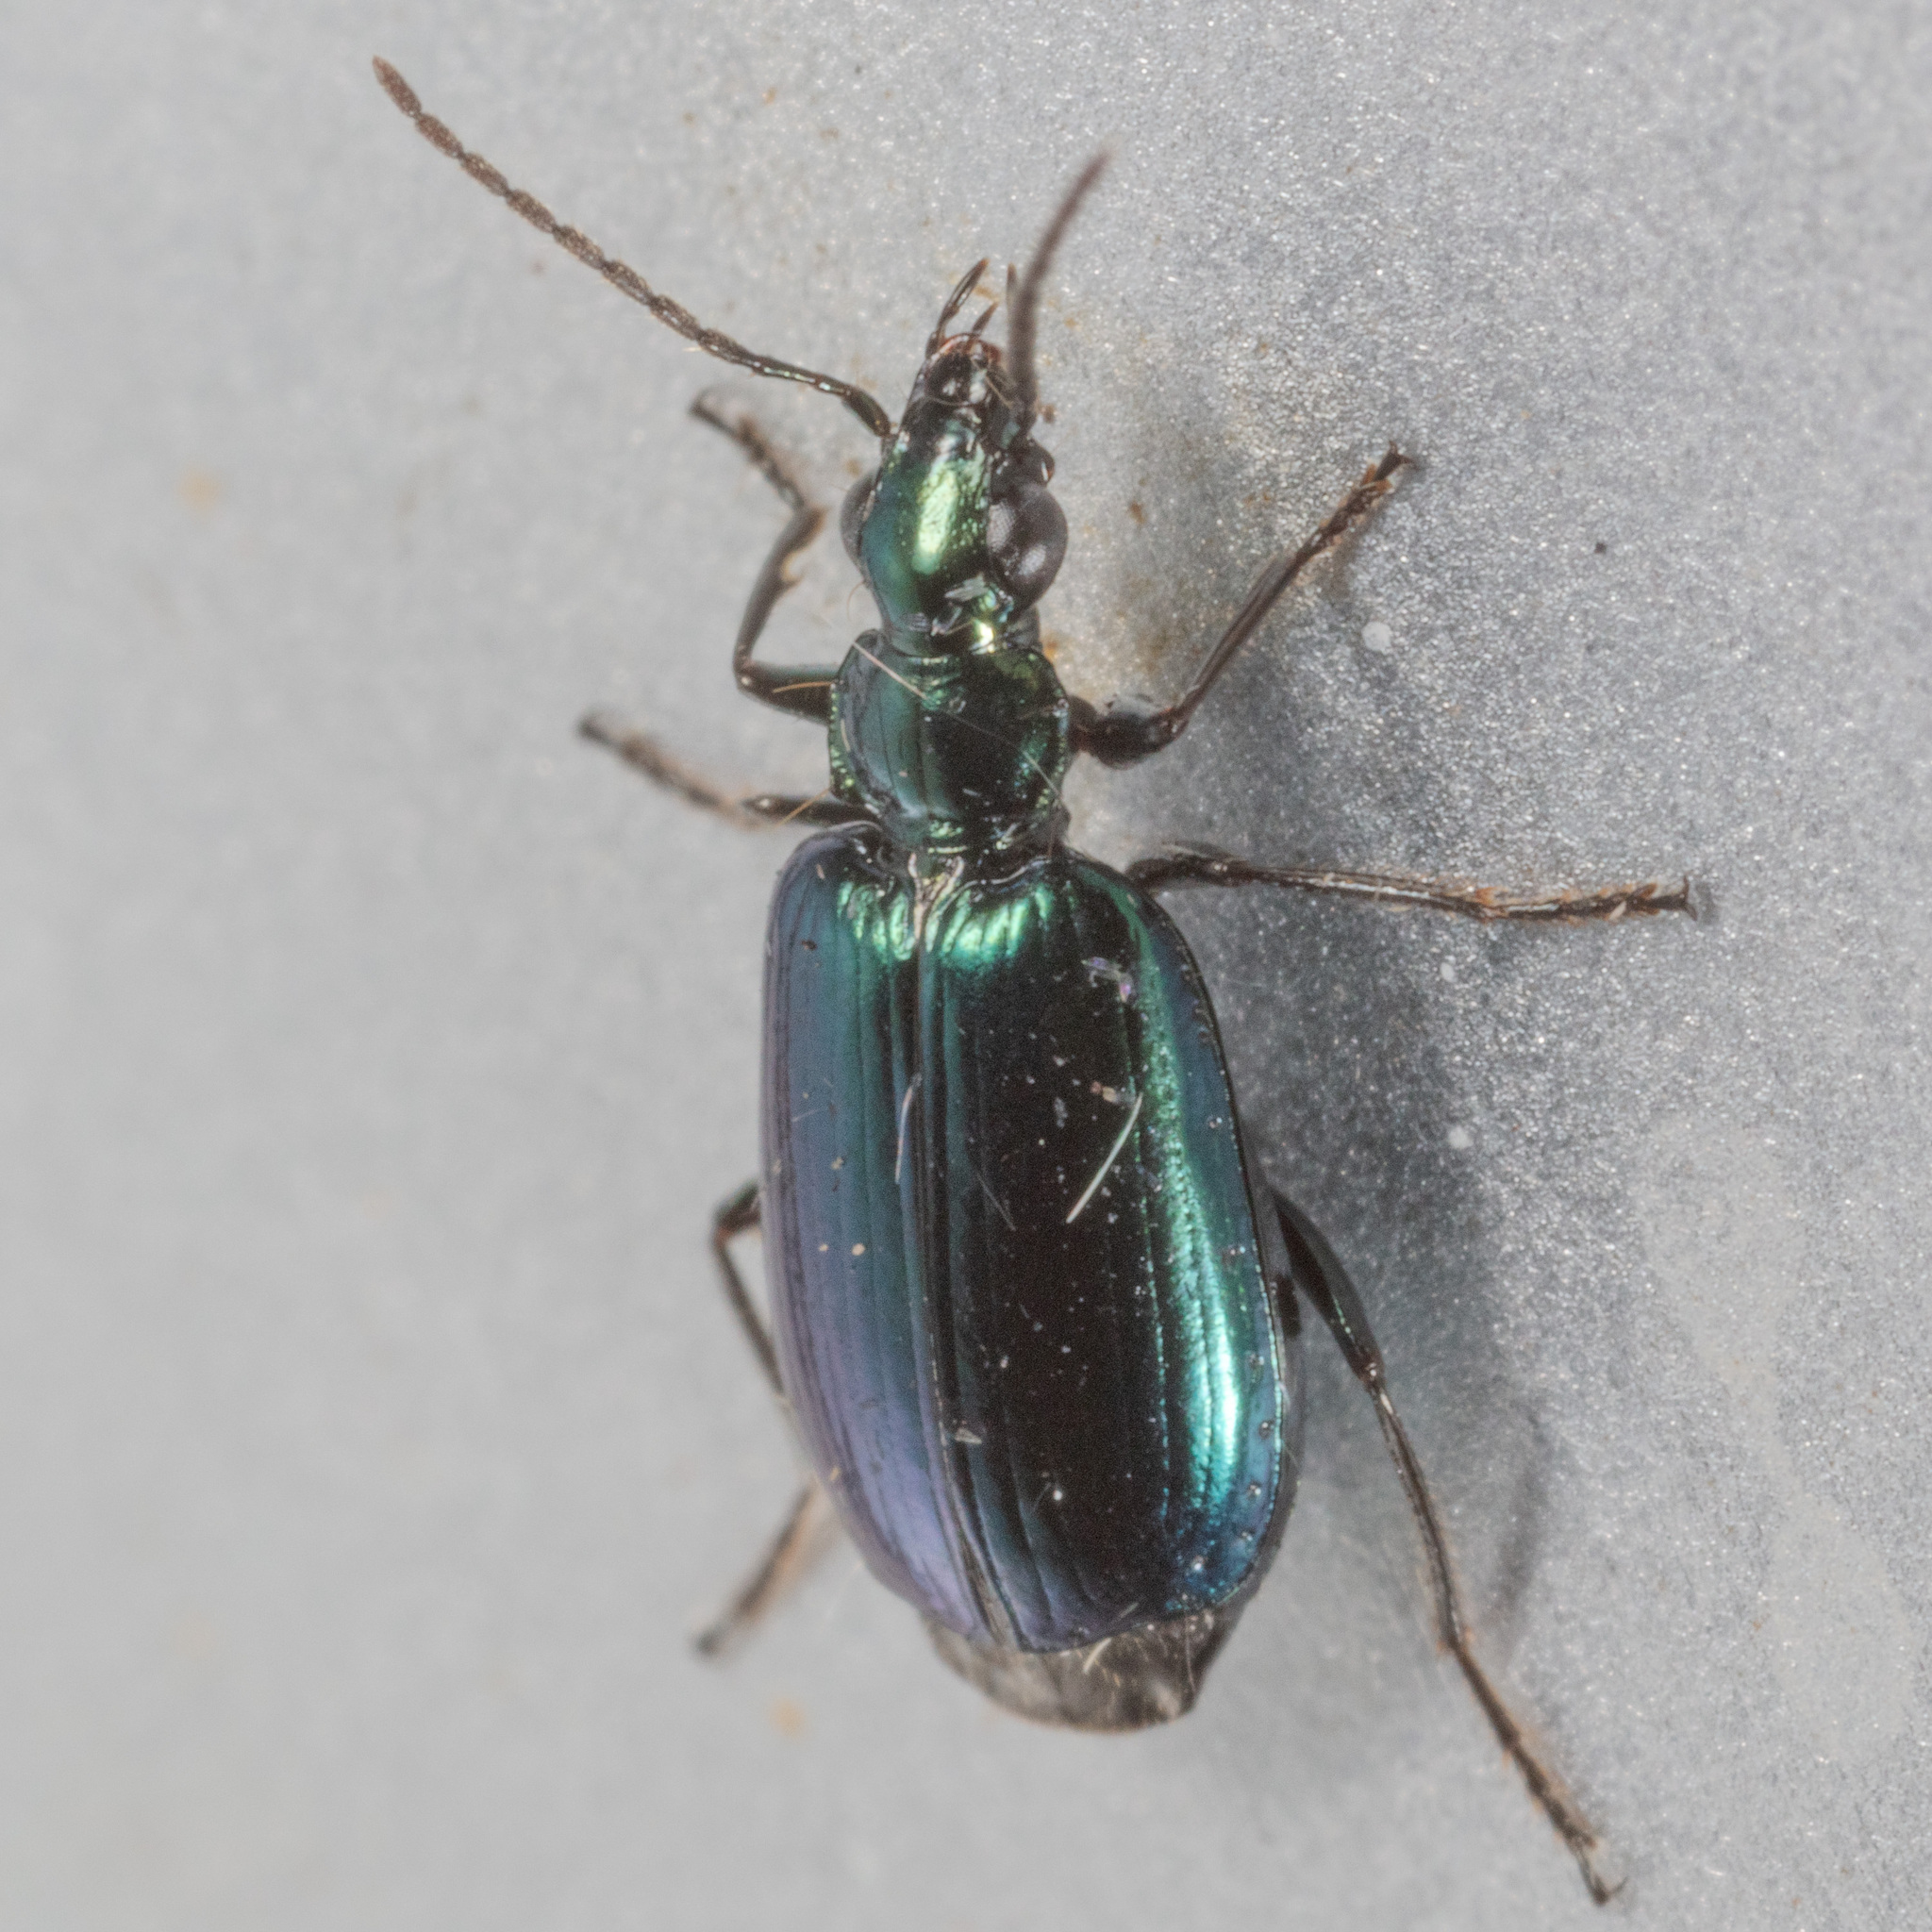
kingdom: Animalia
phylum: Arthropoda
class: Insecta
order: Coleoptera
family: Carabidae
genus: Lebia
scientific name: Lebia viridis
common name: Flower lebia beetle
